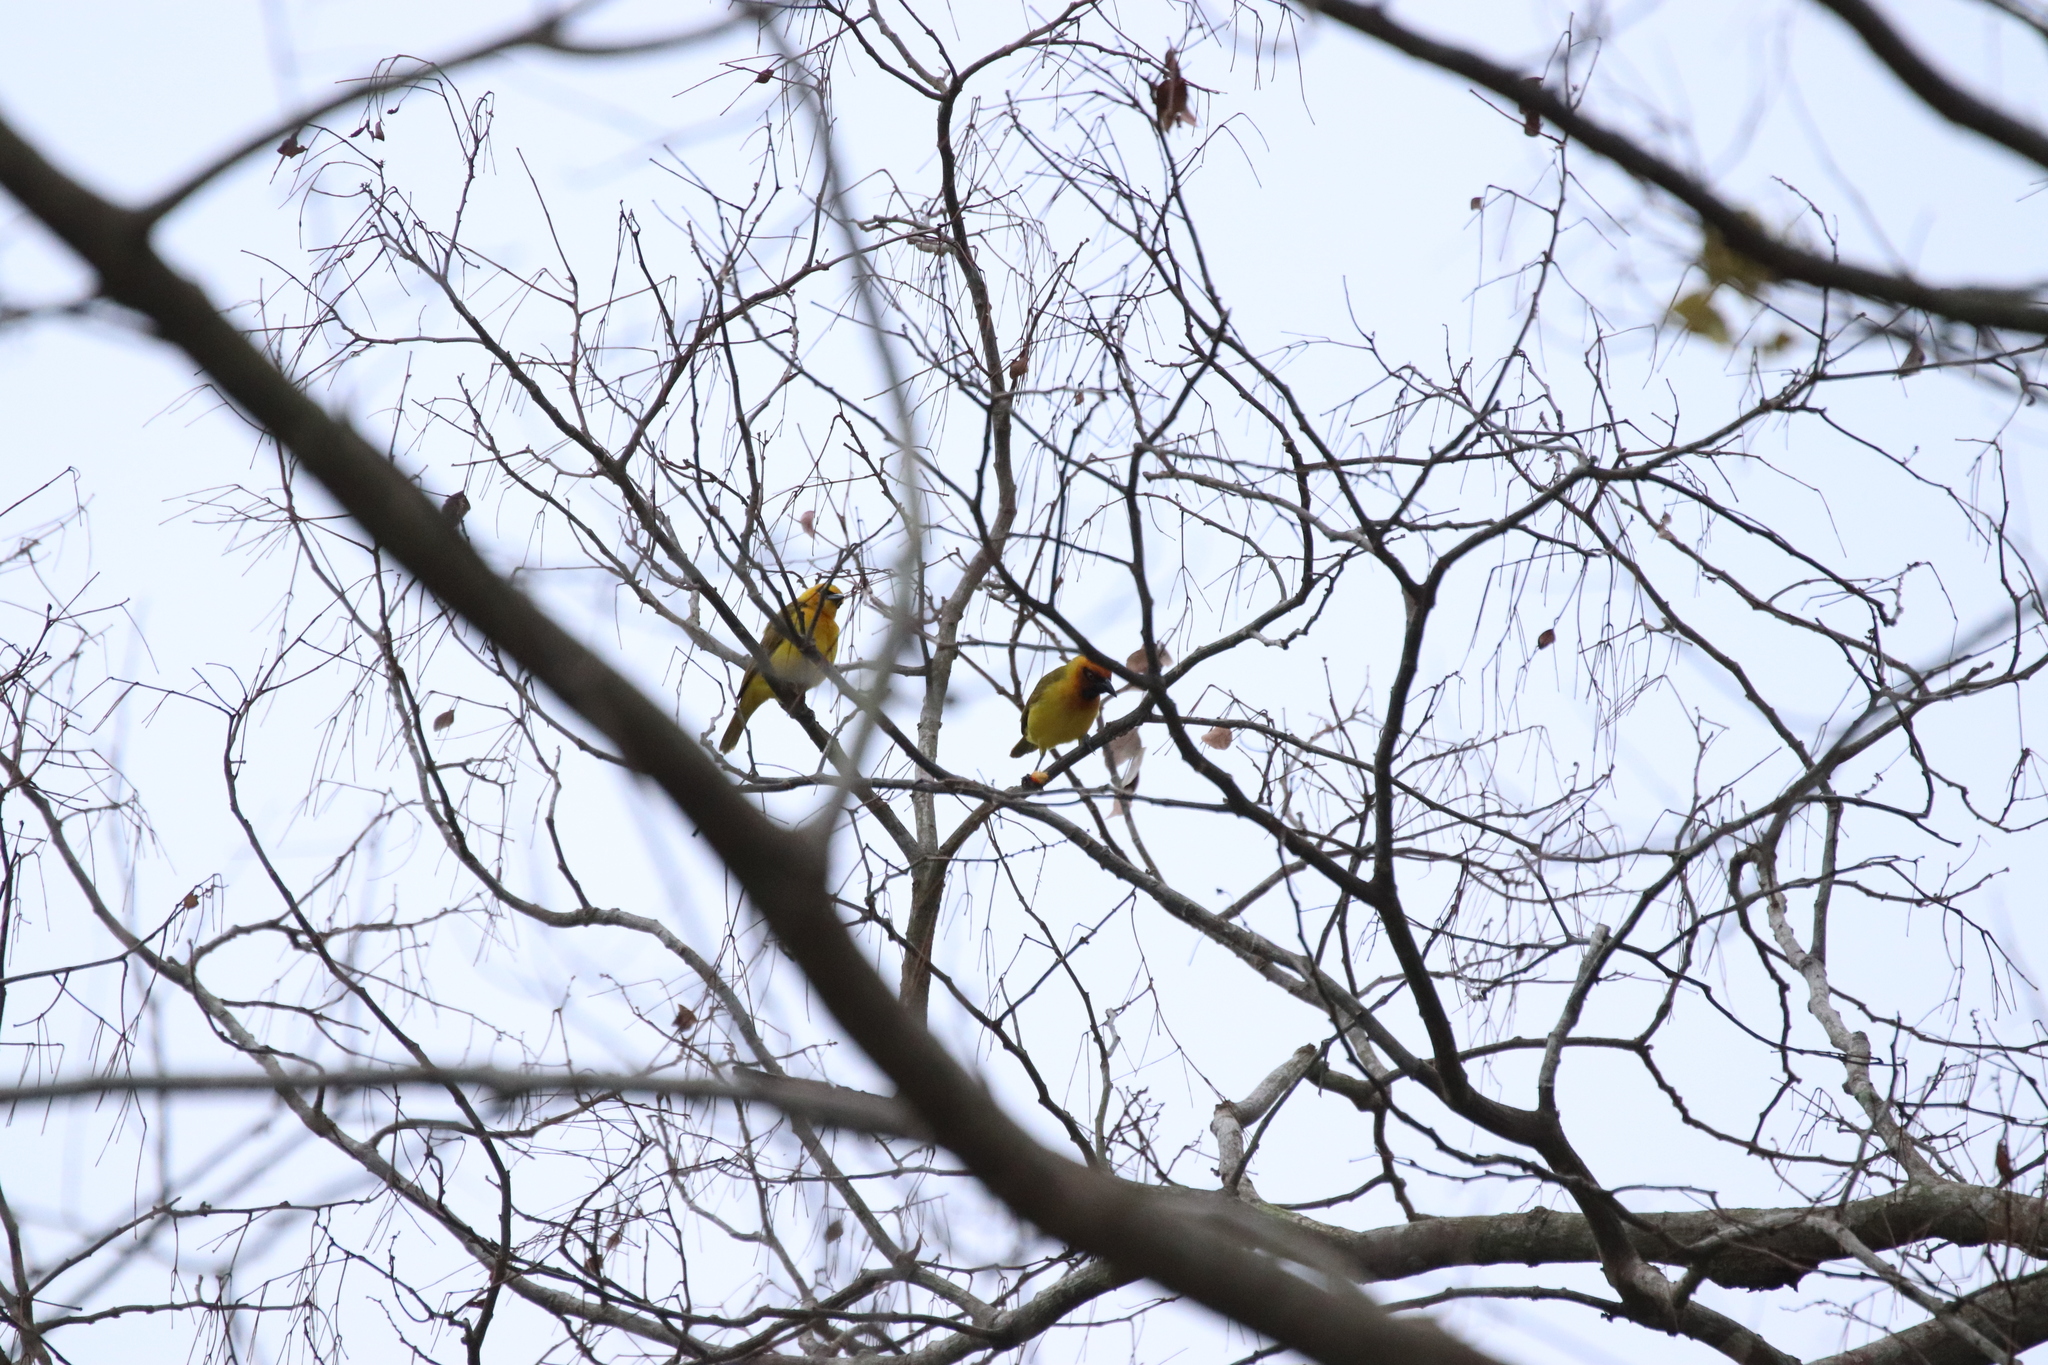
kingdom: Animalia
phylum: Chordata
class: Aves
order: Passeriformes
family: Ploceidae
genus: Ploceus
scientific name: Ploceus brachypterus
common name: Olive-naped weaver
